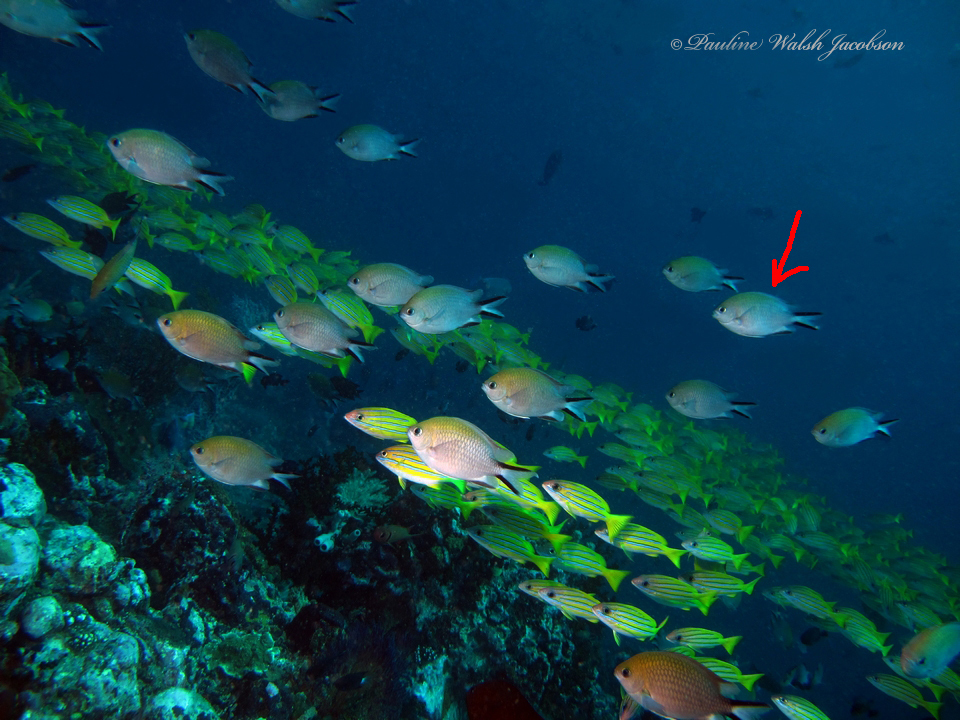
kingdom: Animalia
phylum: Chordata
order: Perciformes
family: Pomacentridae
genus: Chromis
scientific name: Chromis ternatensis
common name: Ternate chromis
